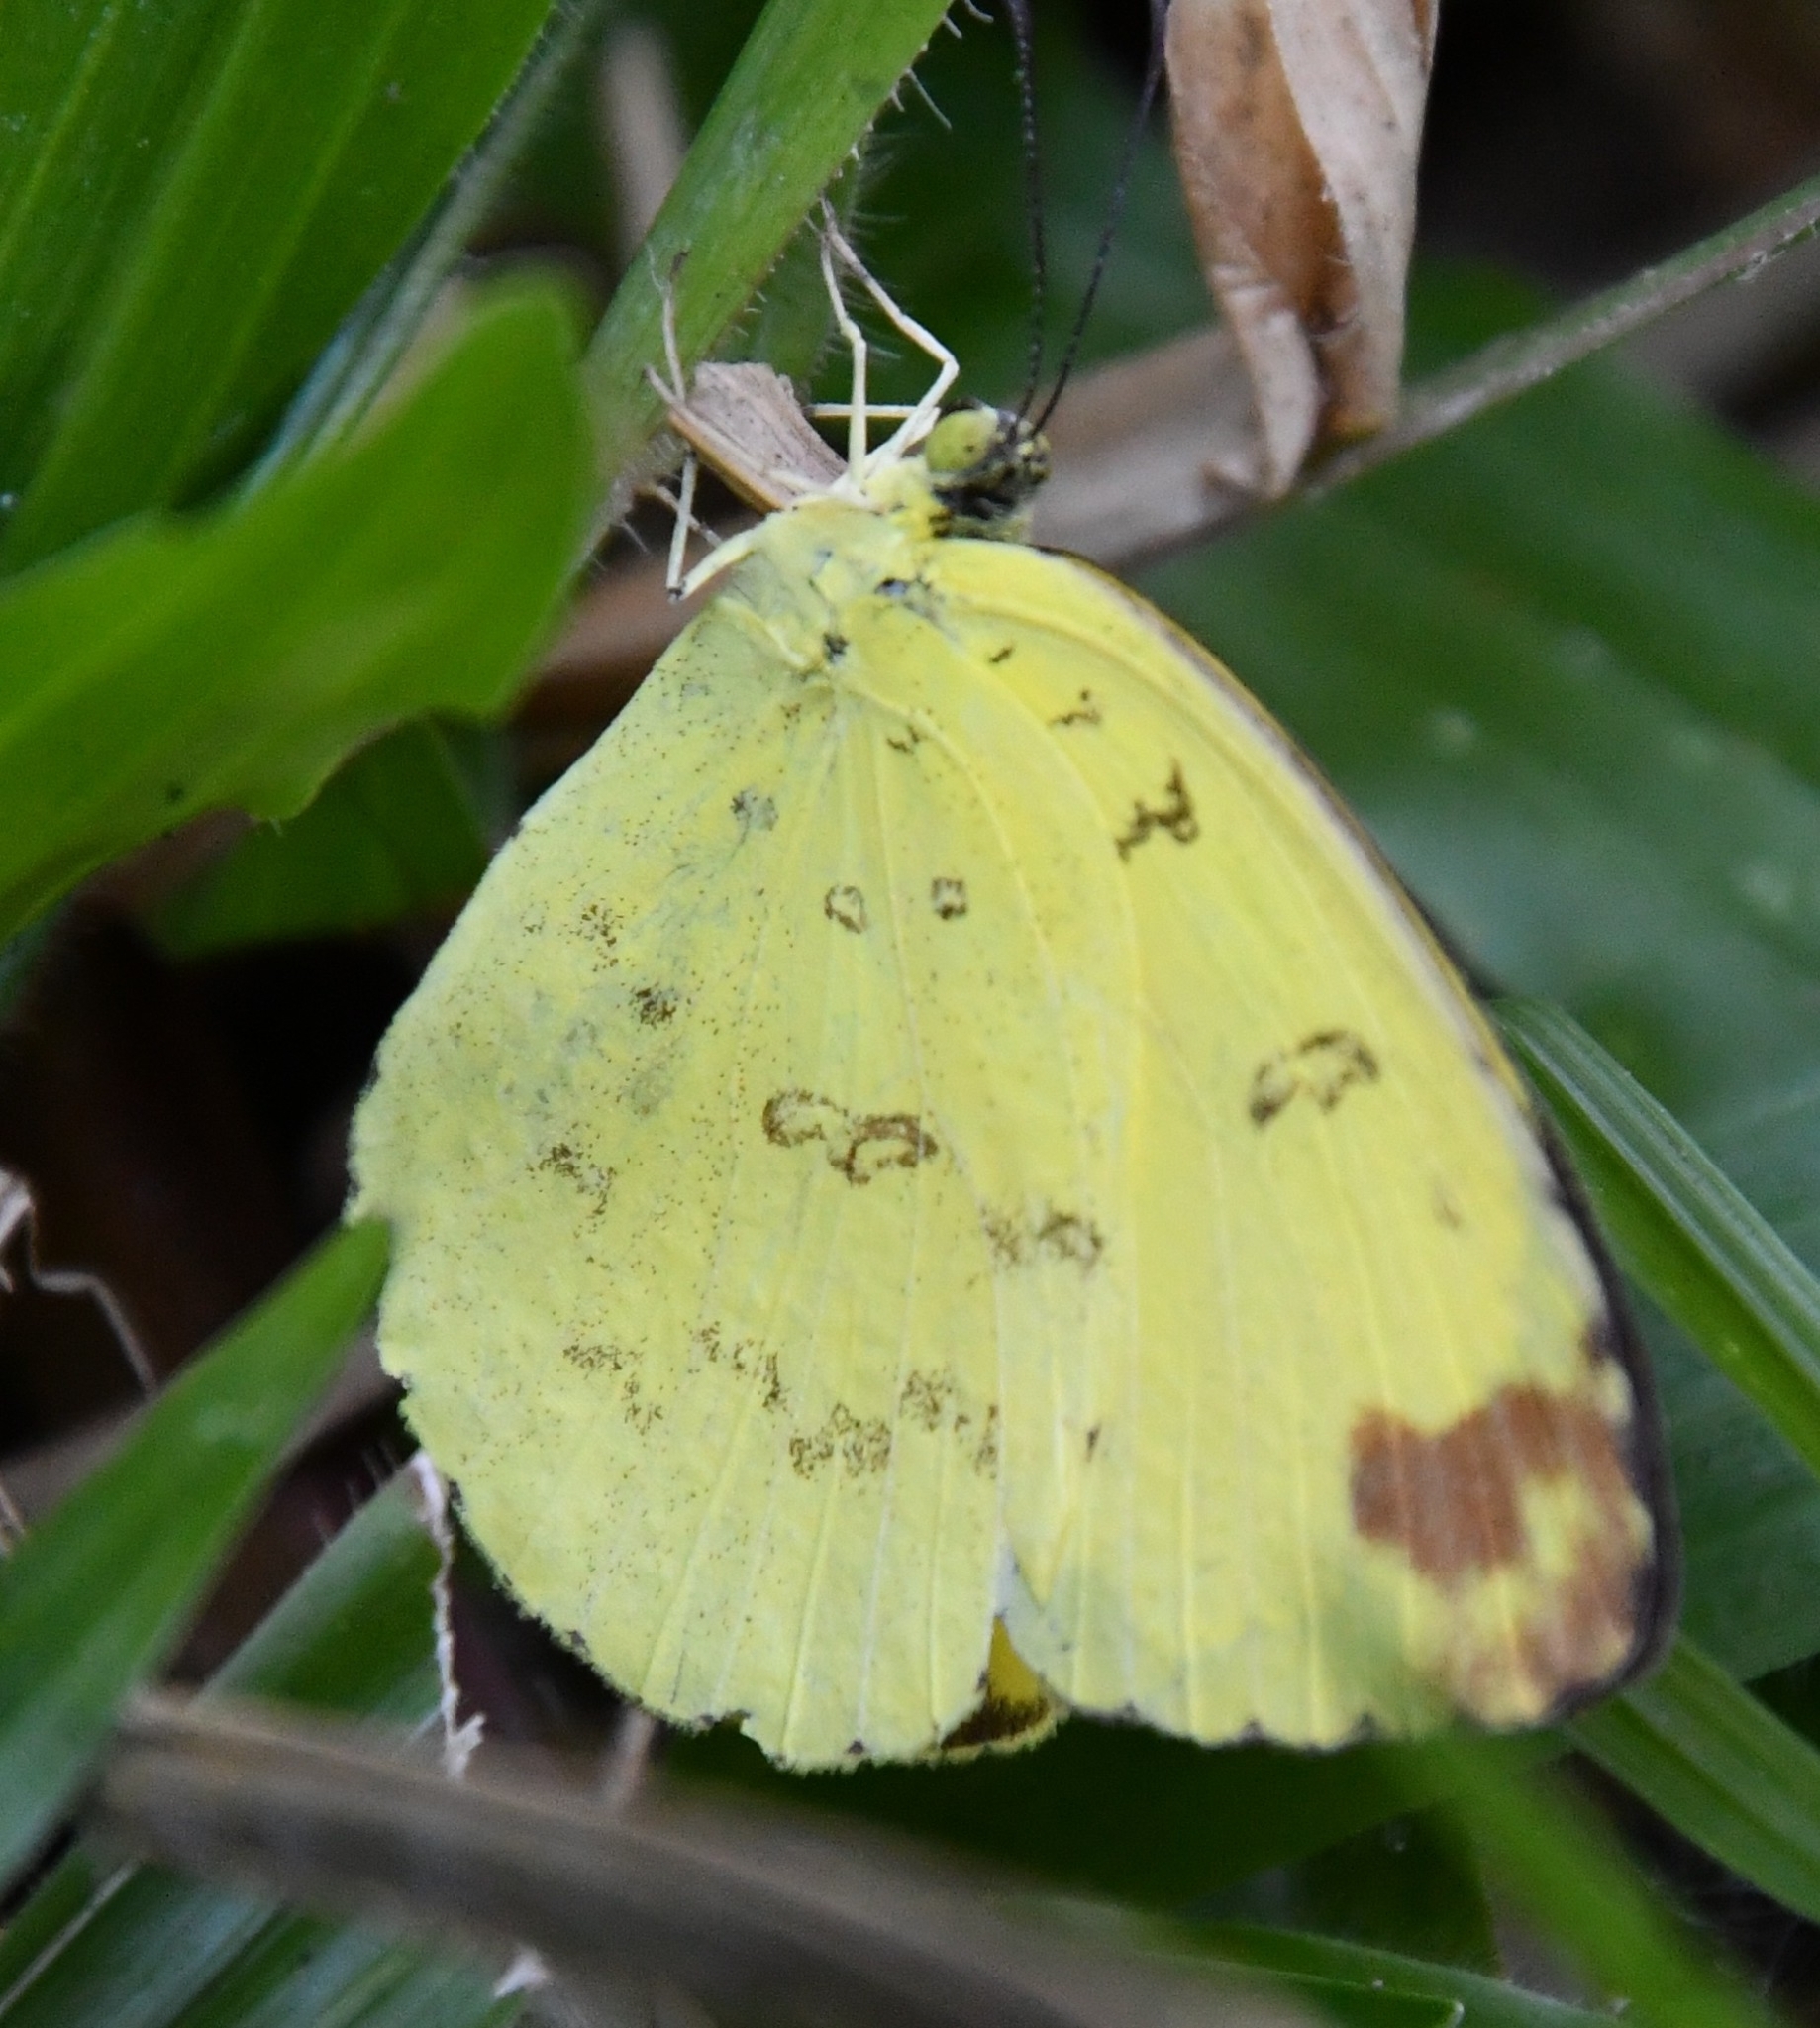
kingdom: Animalia
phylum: Arthropoda
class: Insecta
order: Lepidoptera
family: Pieridae
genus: Eurema
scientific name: Eurema blanda
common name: Three-spot grass yellow
